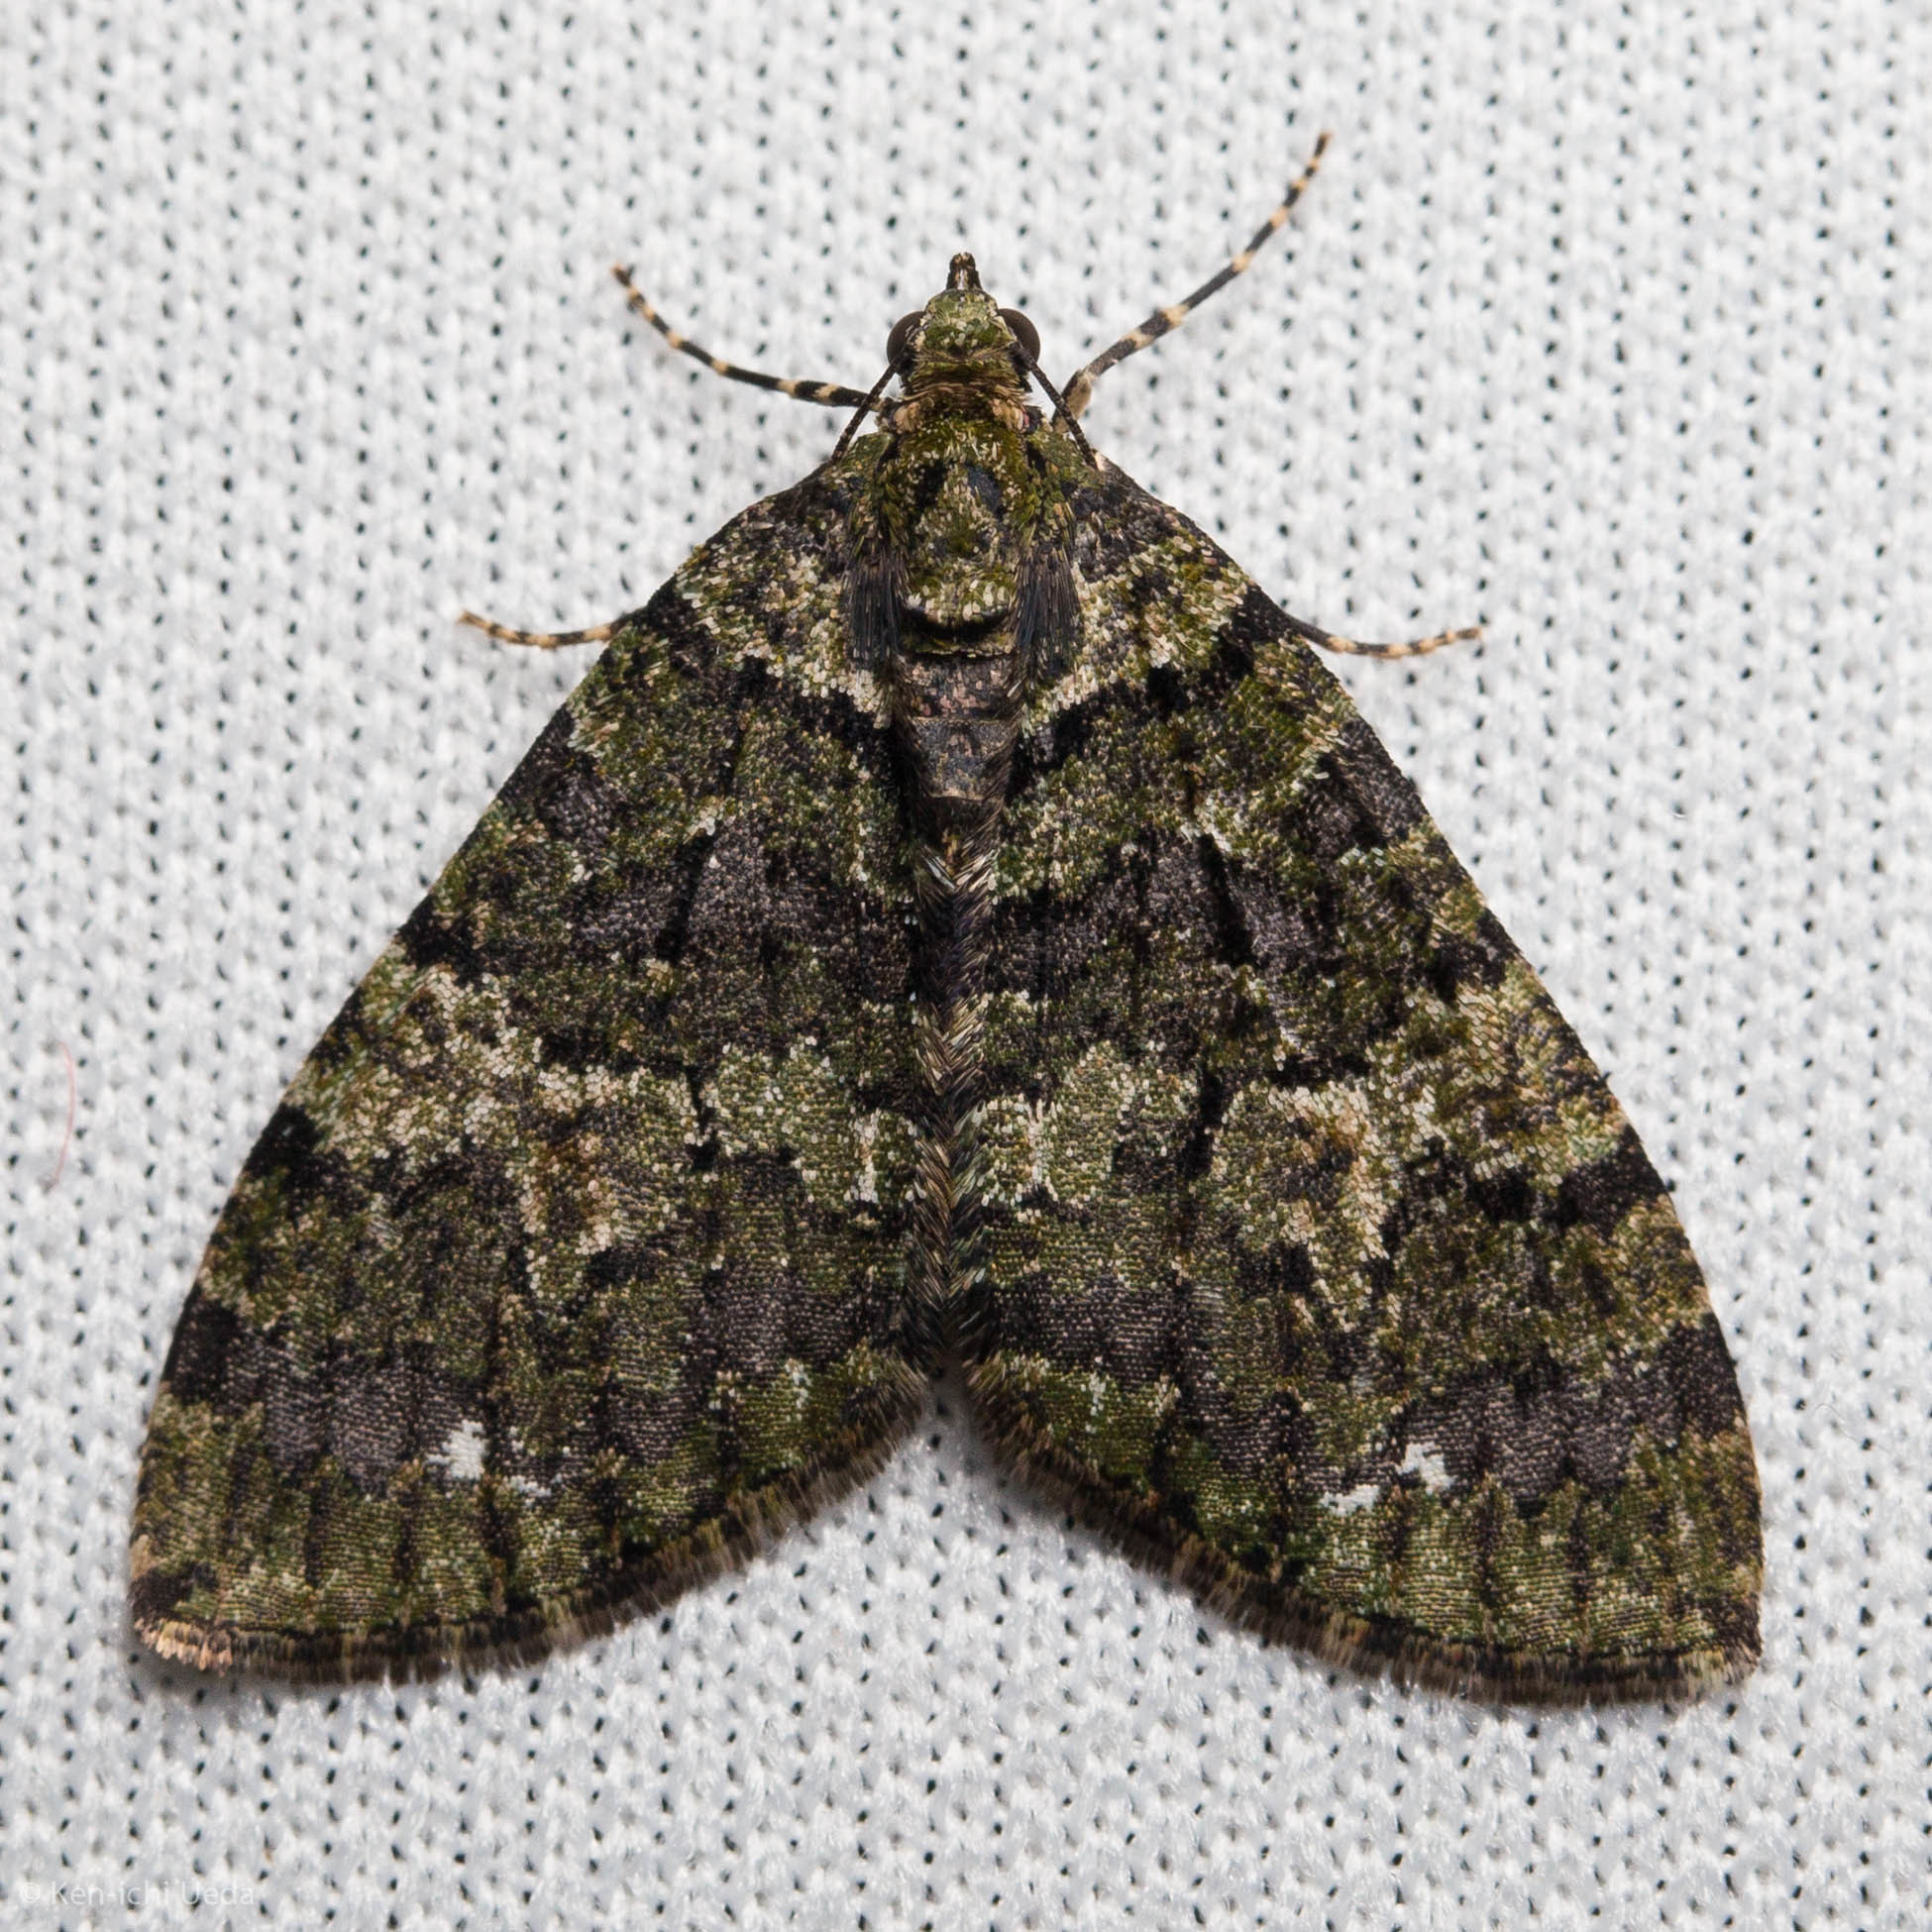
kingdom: Animalia
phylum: Arthropoda
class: Insecta
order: Lepidoptera
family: Geometridae
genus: Hydriomena
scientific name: Hydriomena albifasciata
